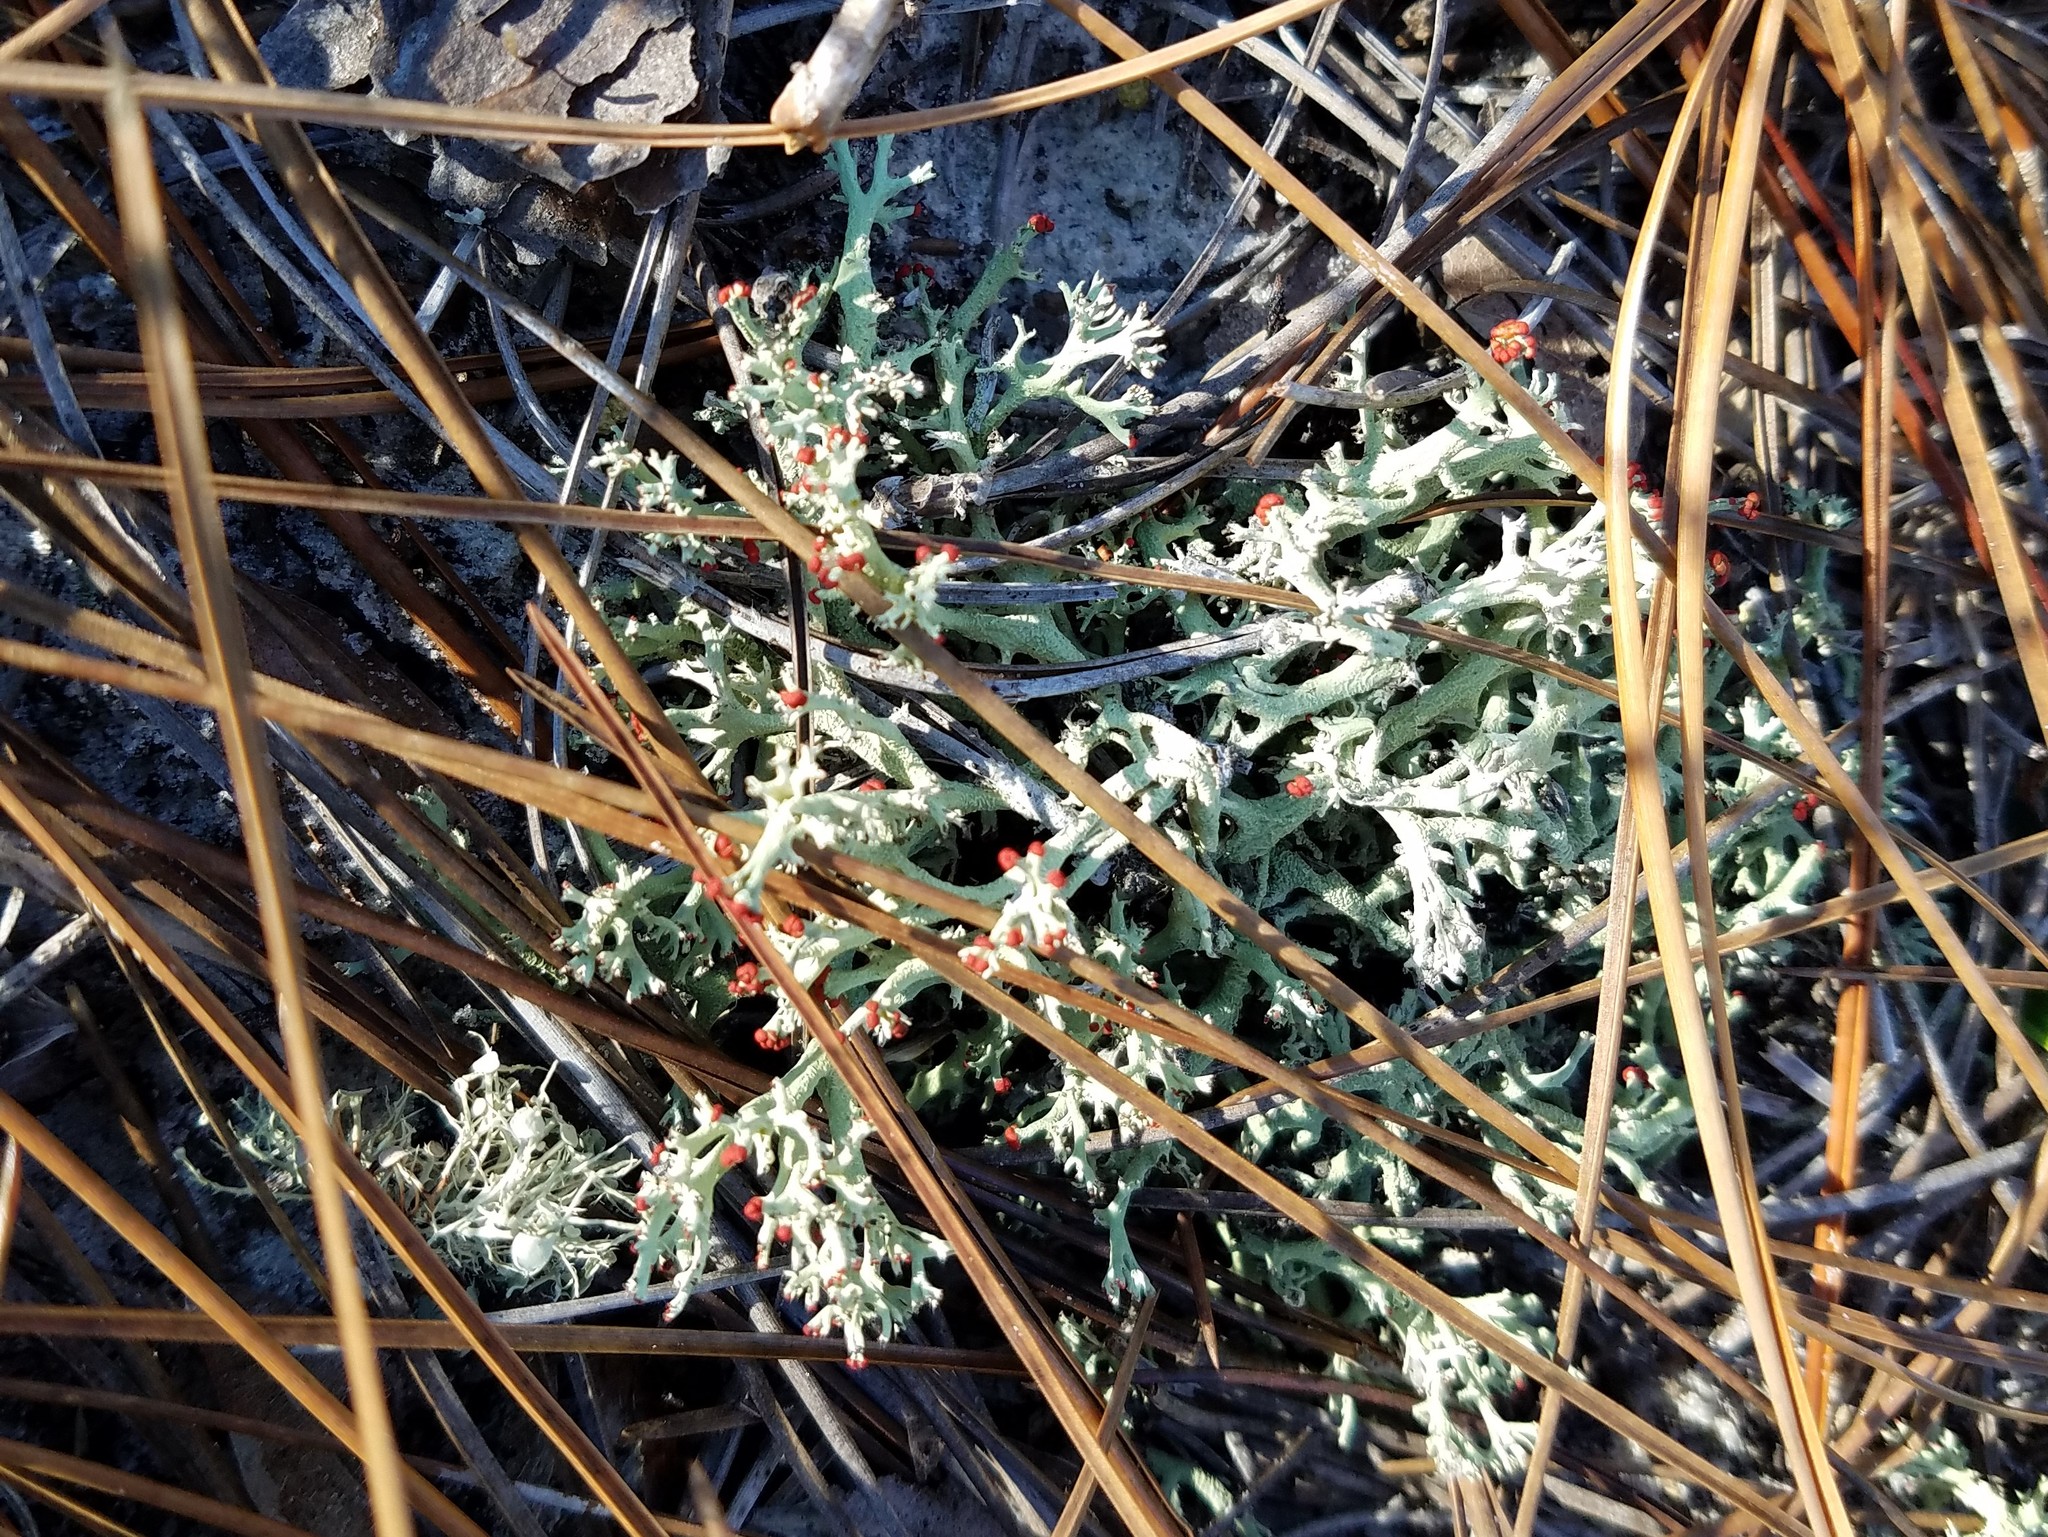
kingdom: Fungi
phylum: Ascomycota
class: Lecanoromycetes
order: Lecanorales
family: Cladoniaceae
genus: Cladonia
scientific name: Cladonia leporina
